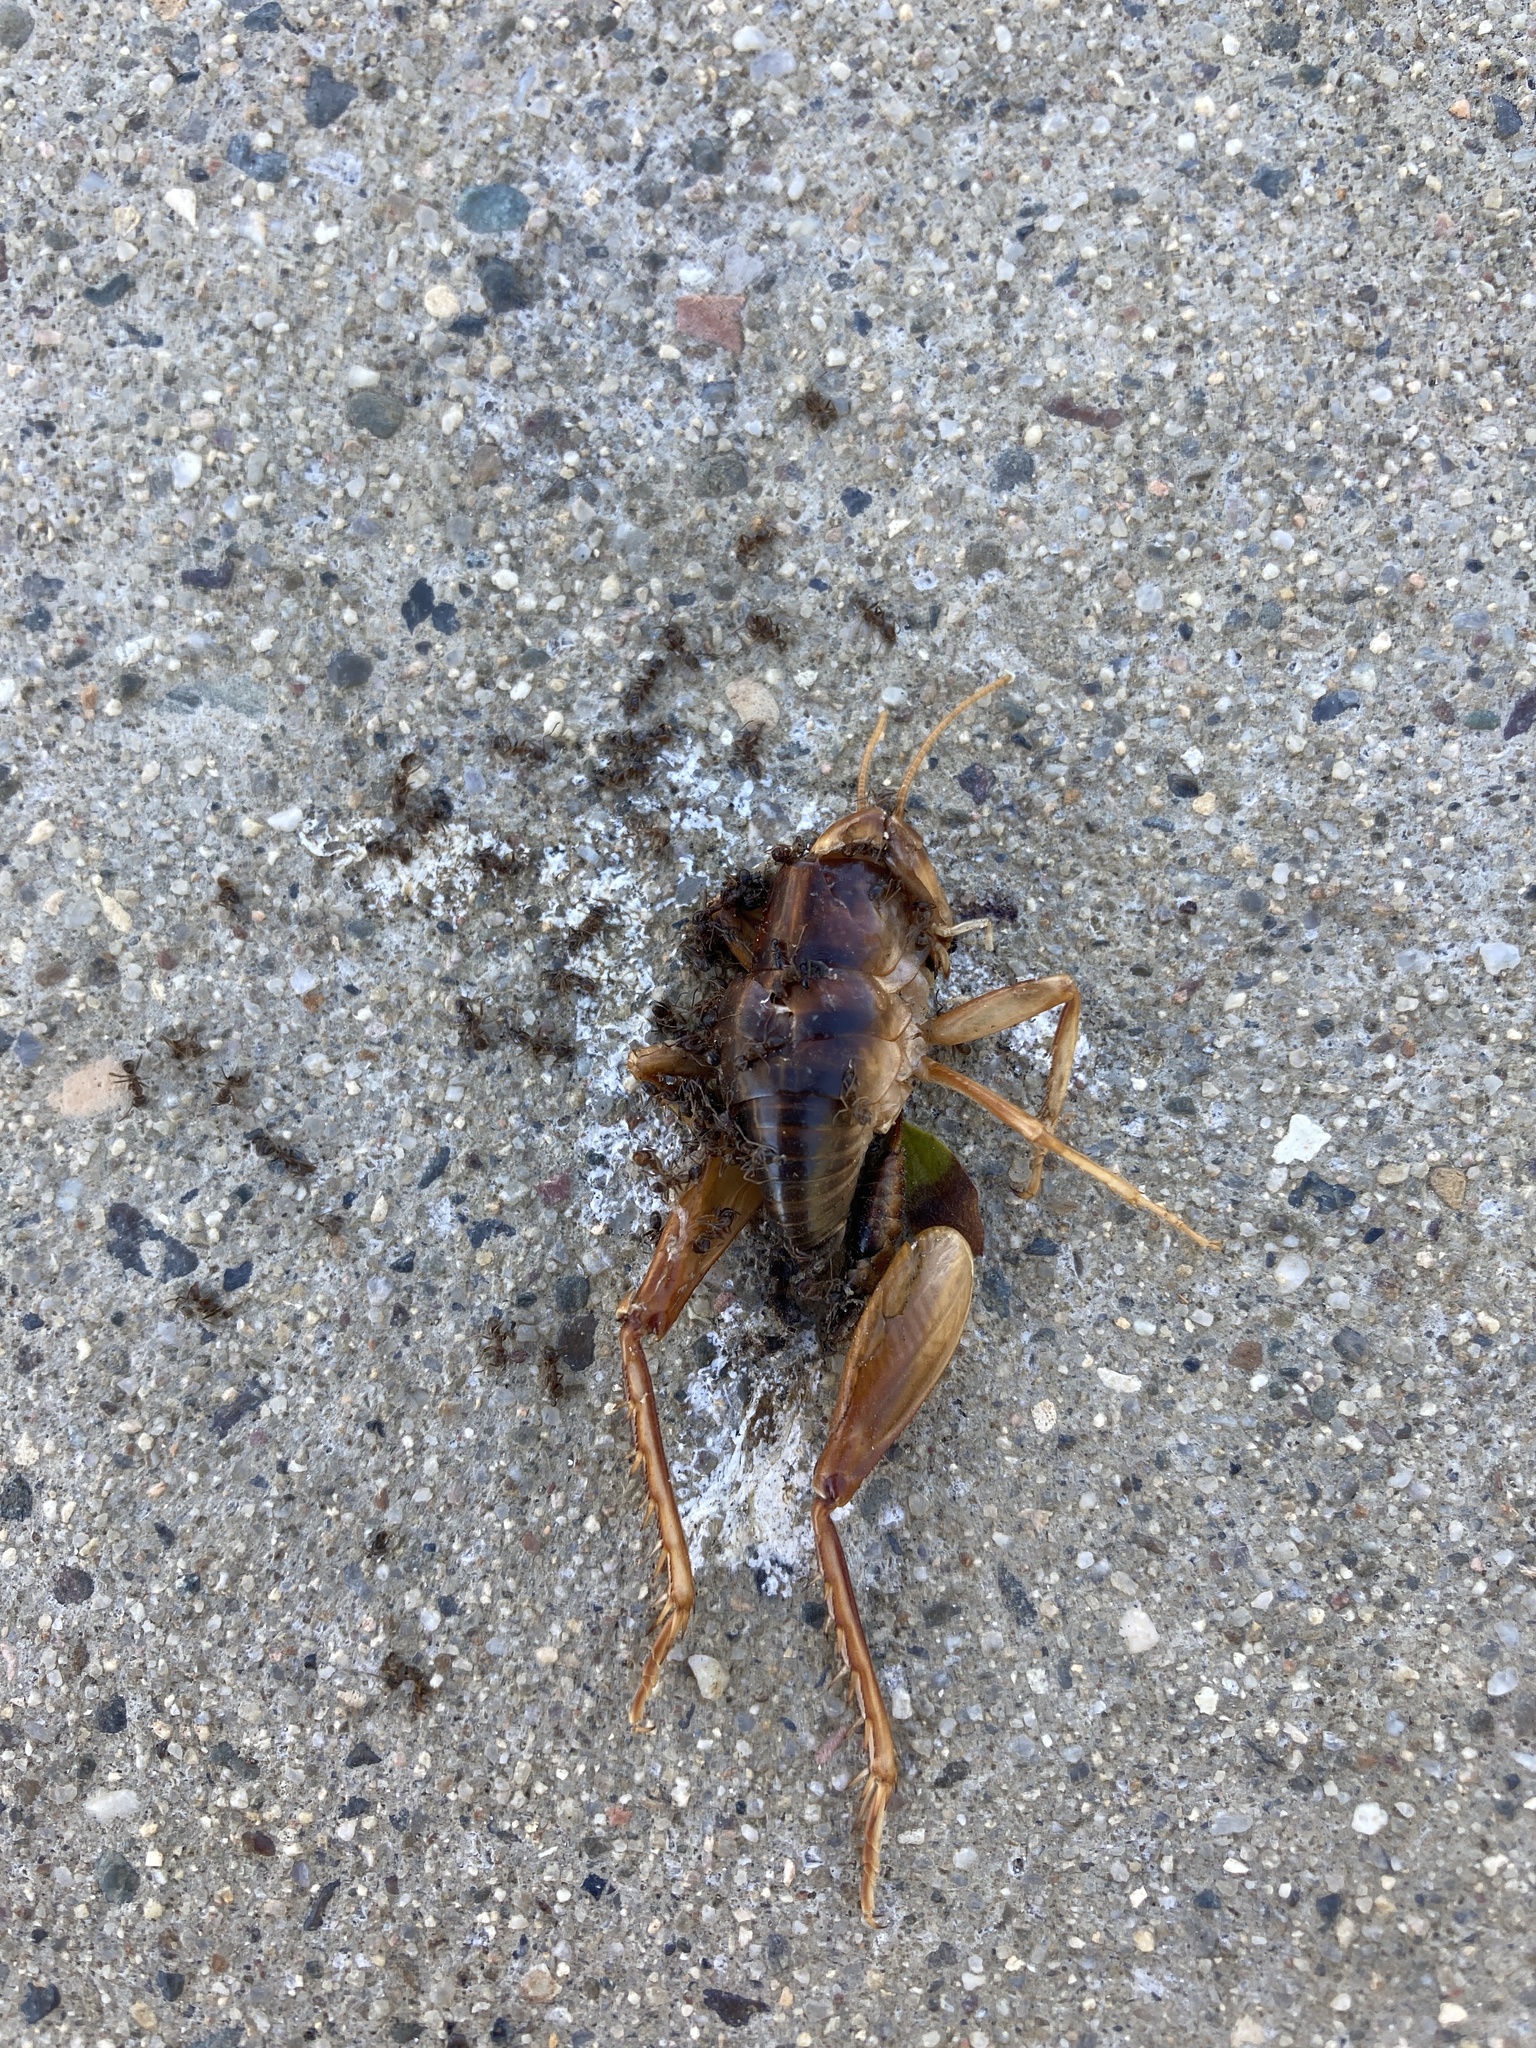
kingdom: Animalia
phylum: Arthropoda
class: Insecta
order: Orthoptera
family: Rhaphidophoridae
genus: Ceuthophilus
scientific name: Ceuthophilus californianus
